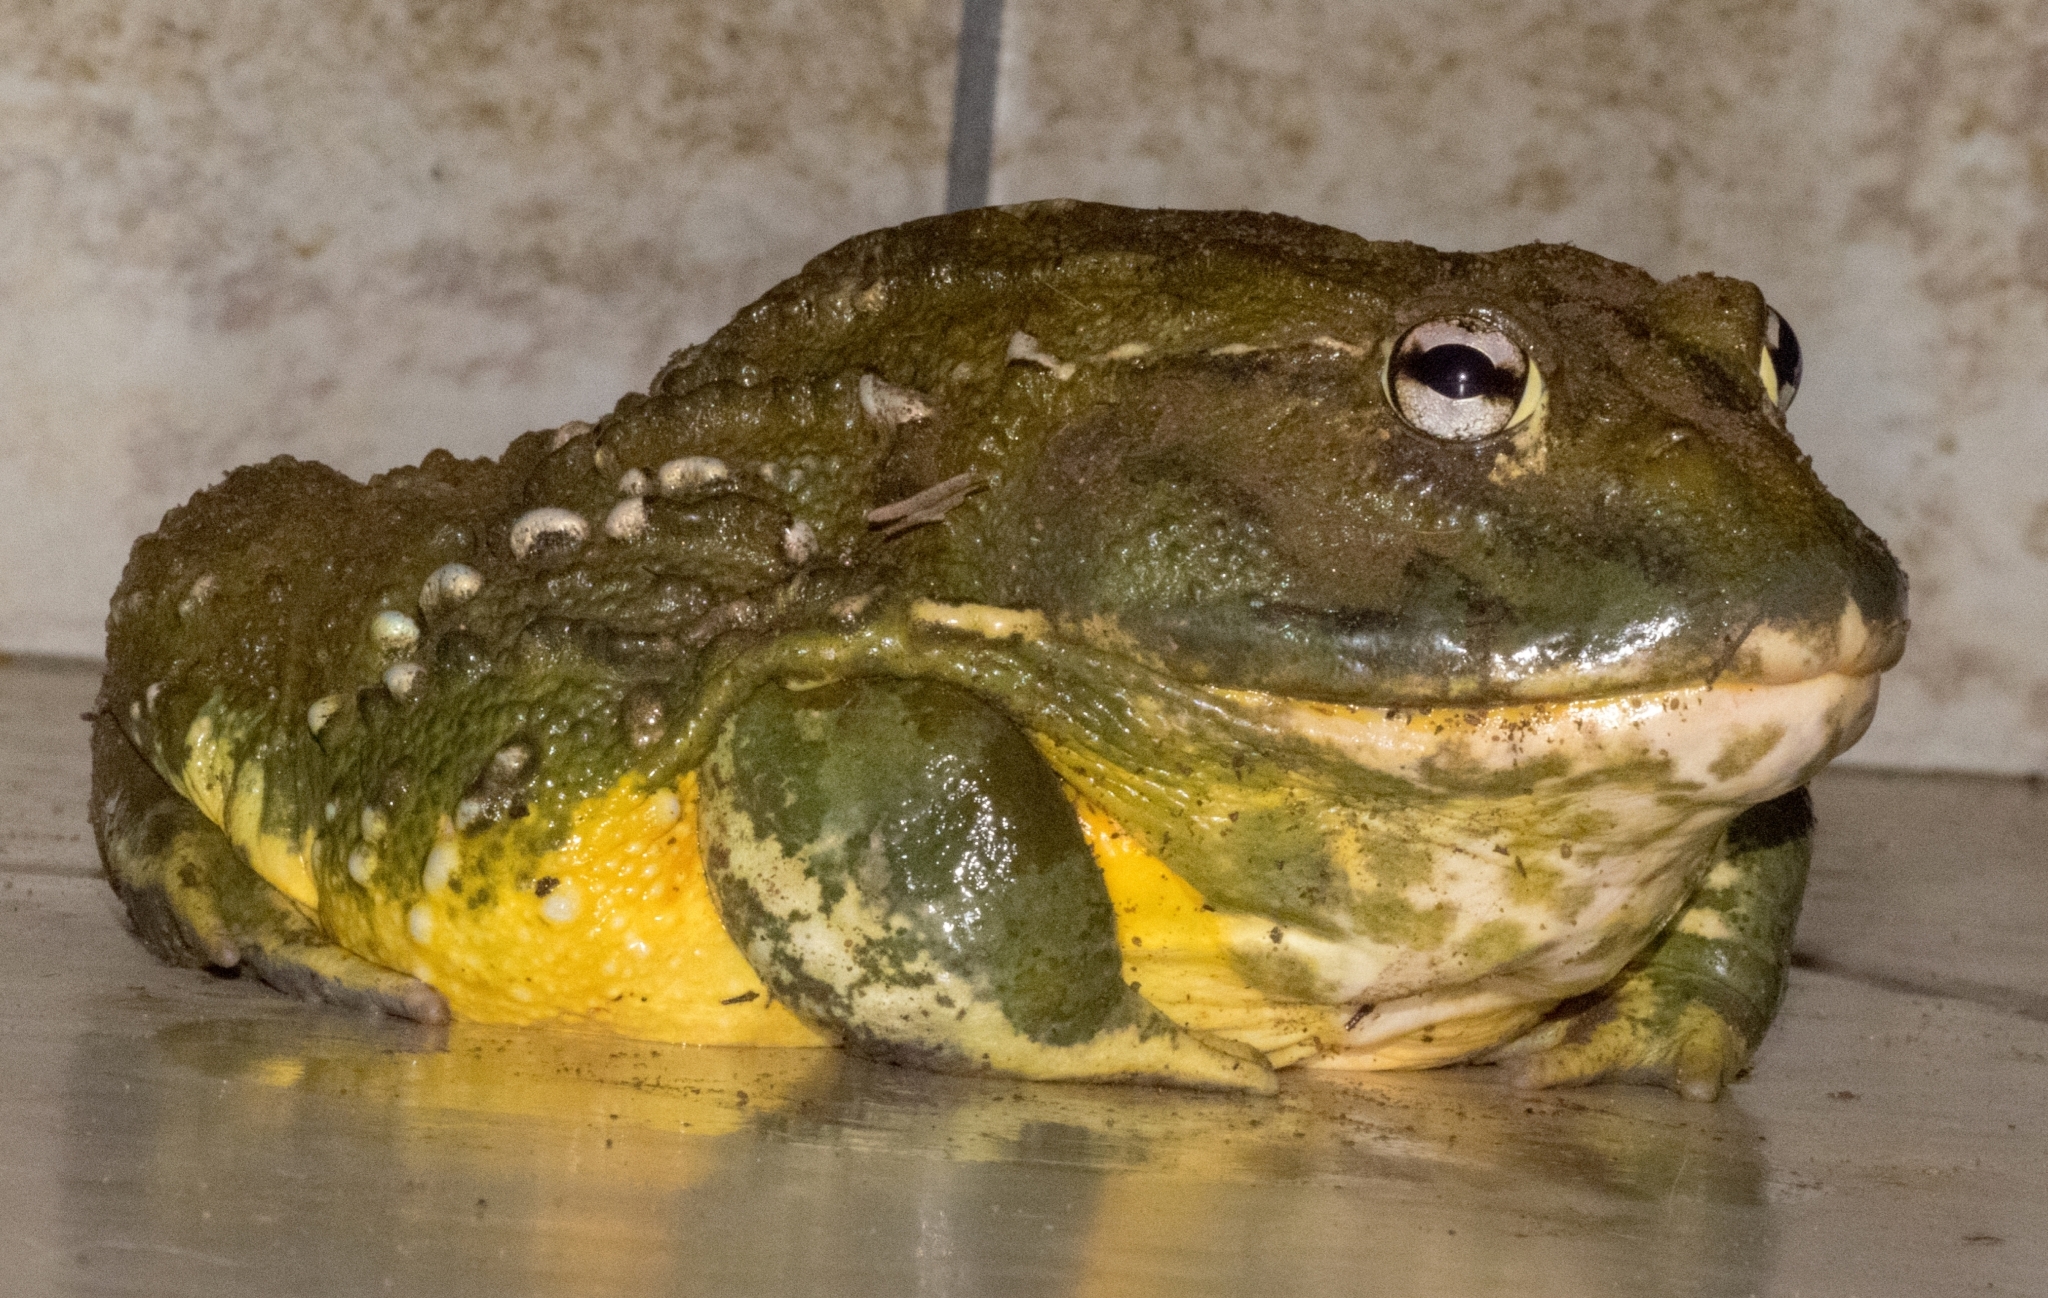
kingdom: Animalia
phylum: Chordata
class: Amphibia
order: Anura
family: Pyxicephalidae
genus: Pyxicephalus
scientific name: Pyxicephalus adspersus
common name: African bullfrog
